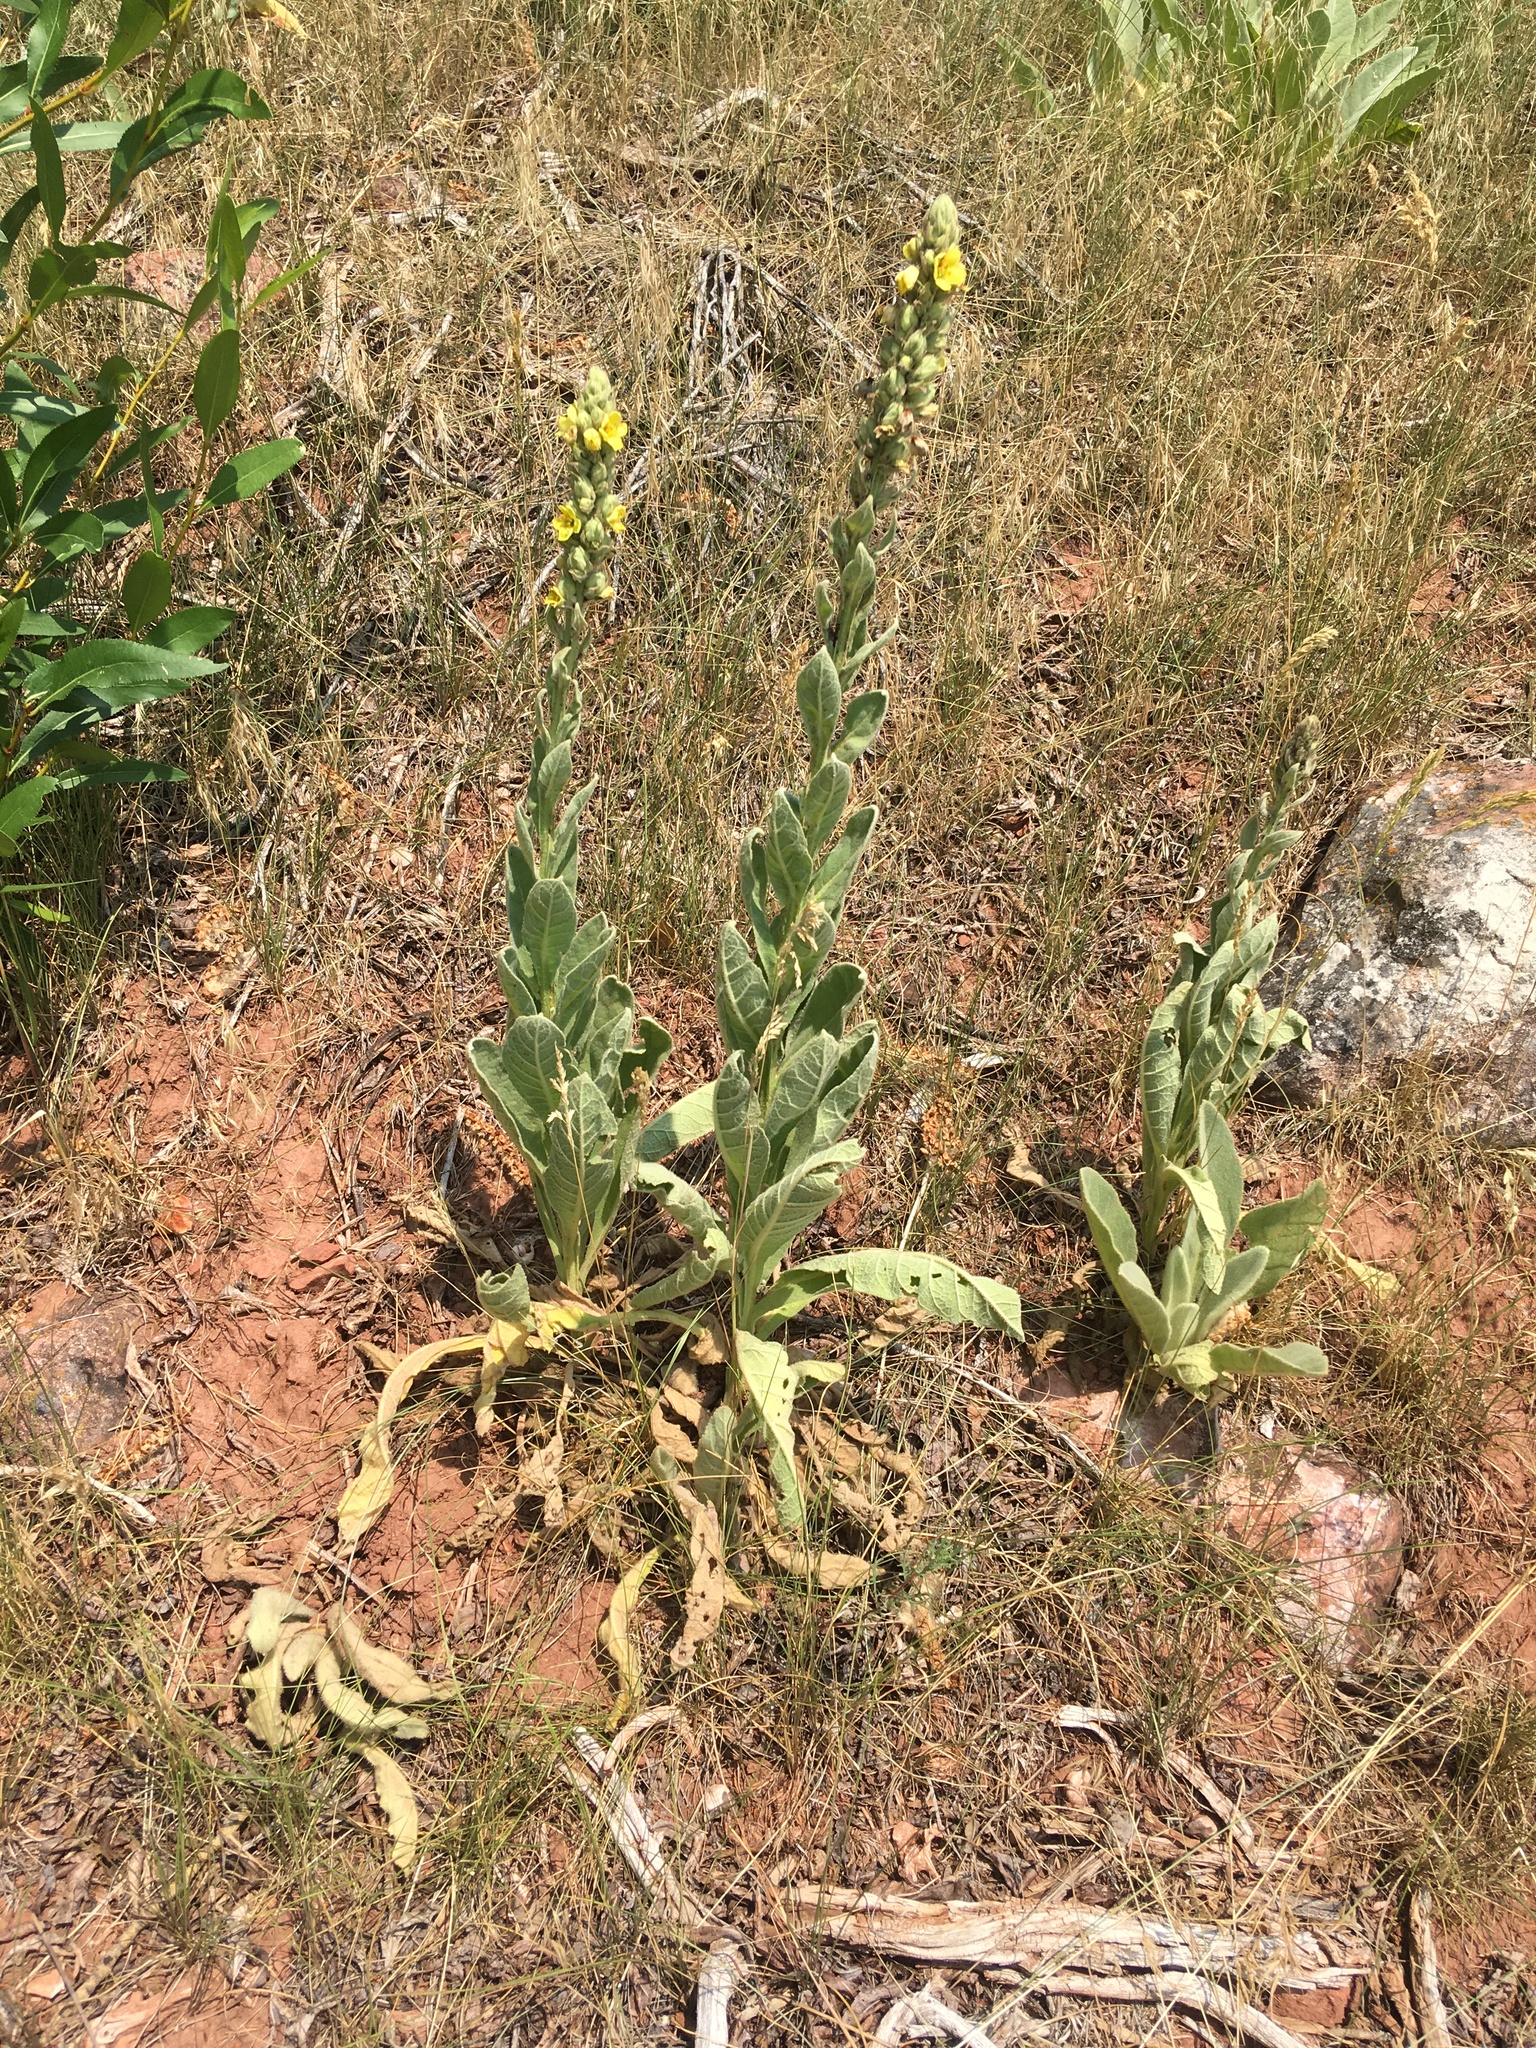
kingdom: Plantae
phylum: Tracheophyta
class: Magnoliopsida
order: Lamiales
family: Scrophulariaceae
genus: Verbascum
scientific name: Verbascum thapsus
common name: Common mullein
